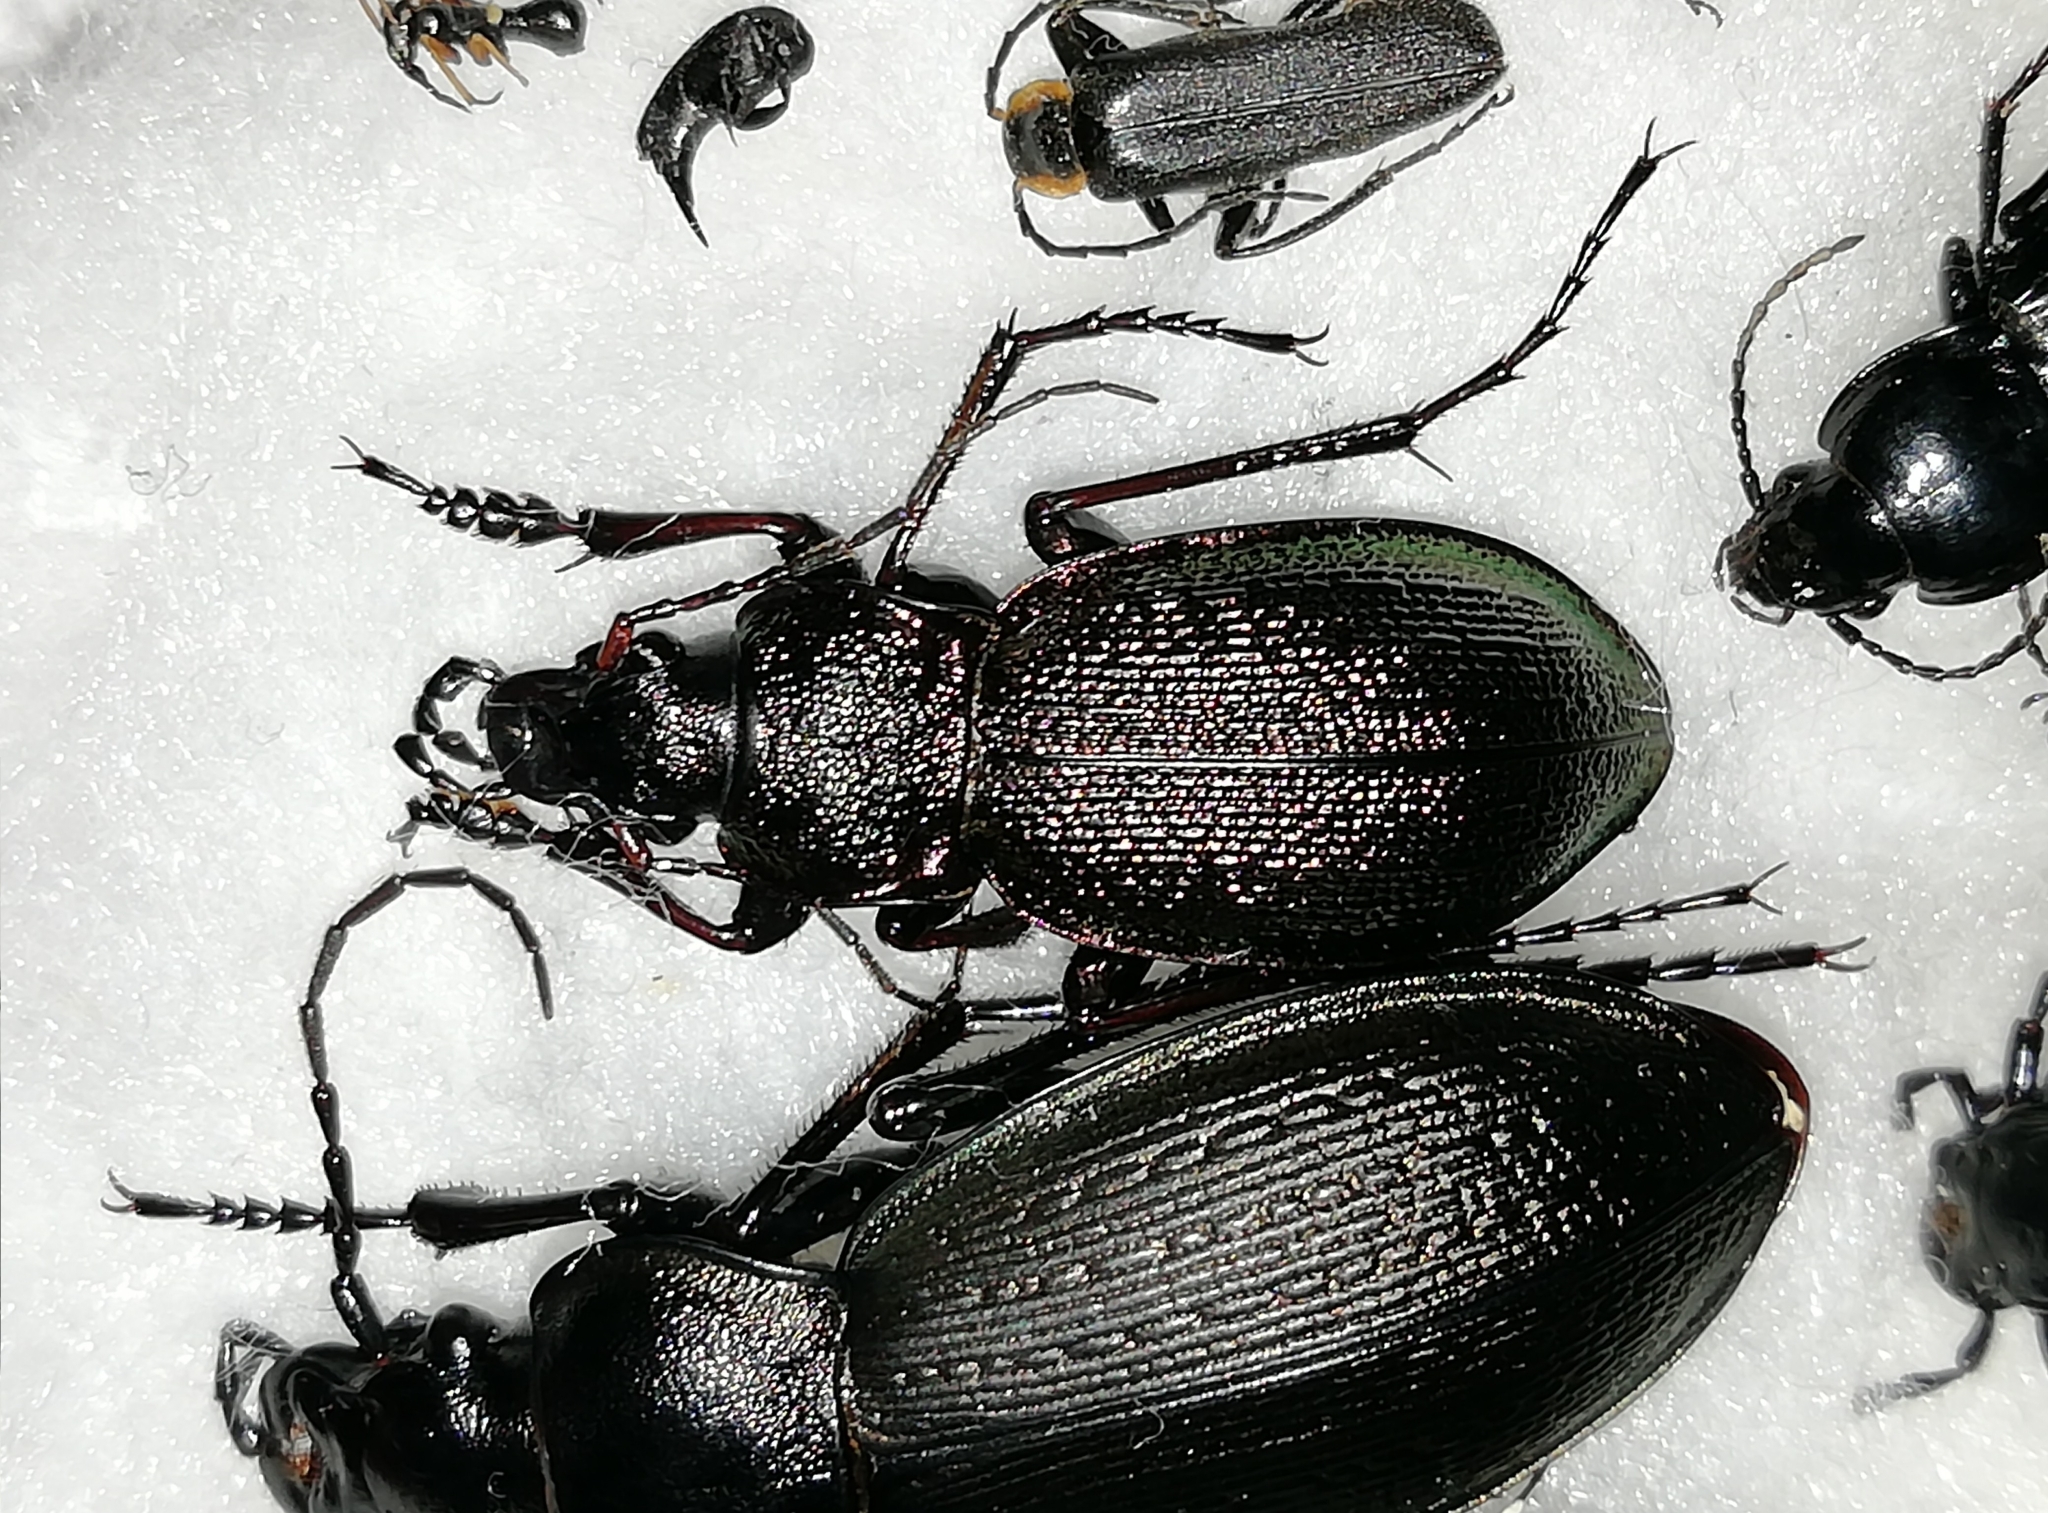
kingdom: Animalia
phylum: Arthropoda
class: Insecta
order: Coleoptera
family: Carabidae
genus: Carabus
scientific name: Carabus henningi
